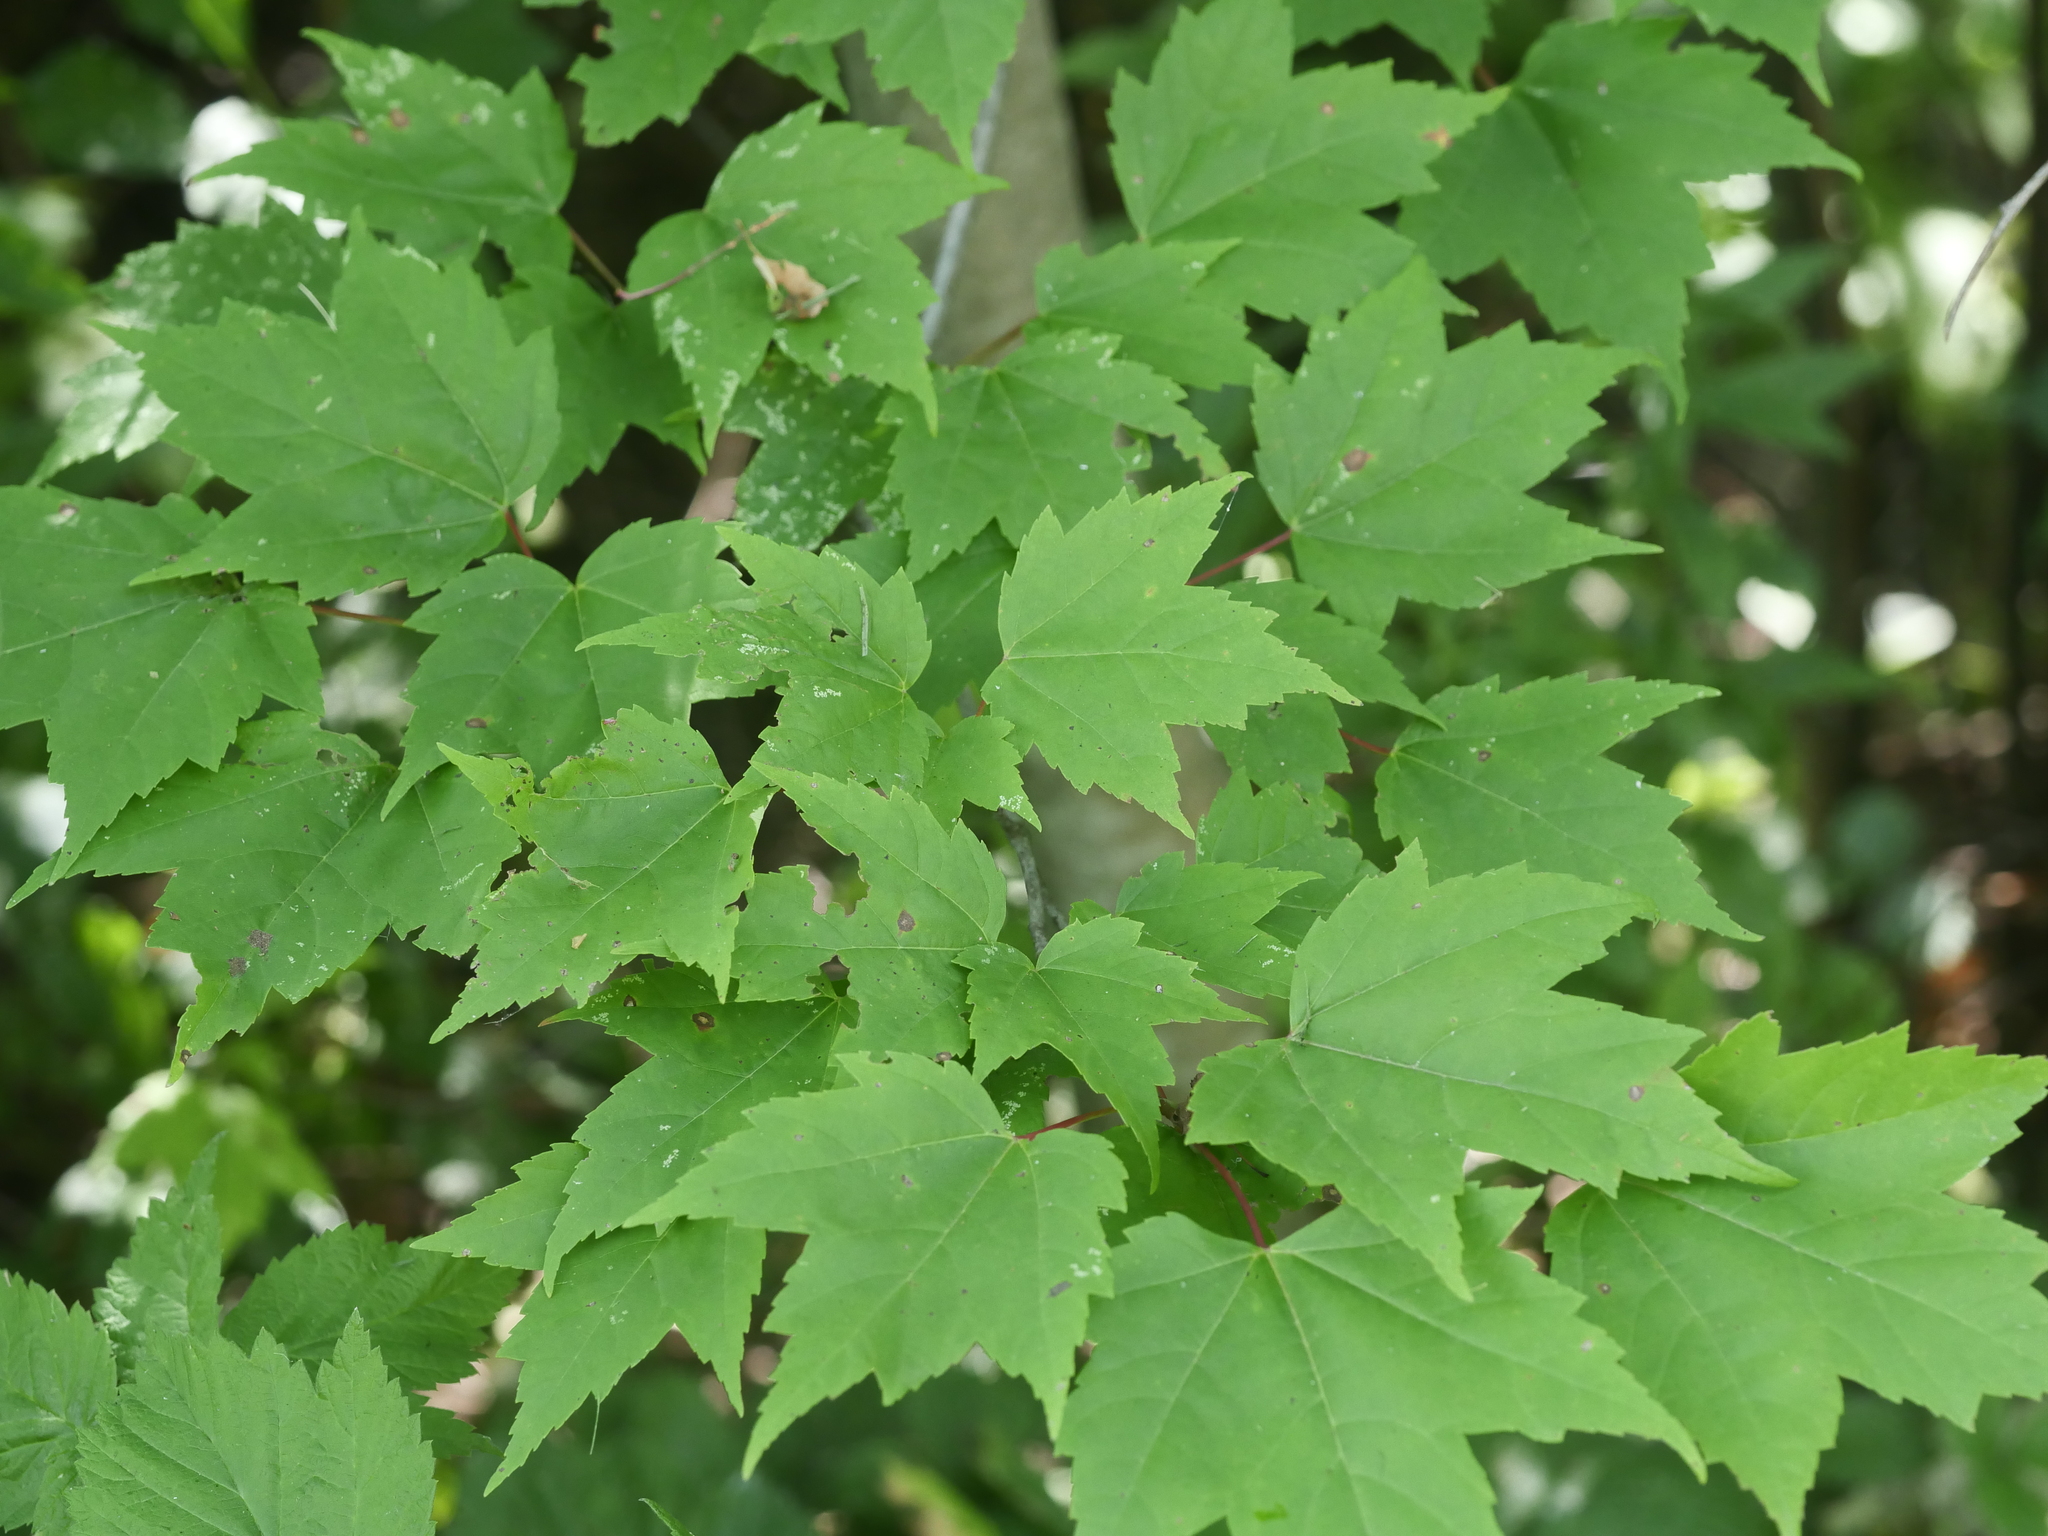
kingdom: Plantae
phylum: Tracheophyta
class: Magnoliopsida
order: Sapindales
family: Sapindaceae
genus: Acer
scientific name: Acer rubrum
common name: Red maple
